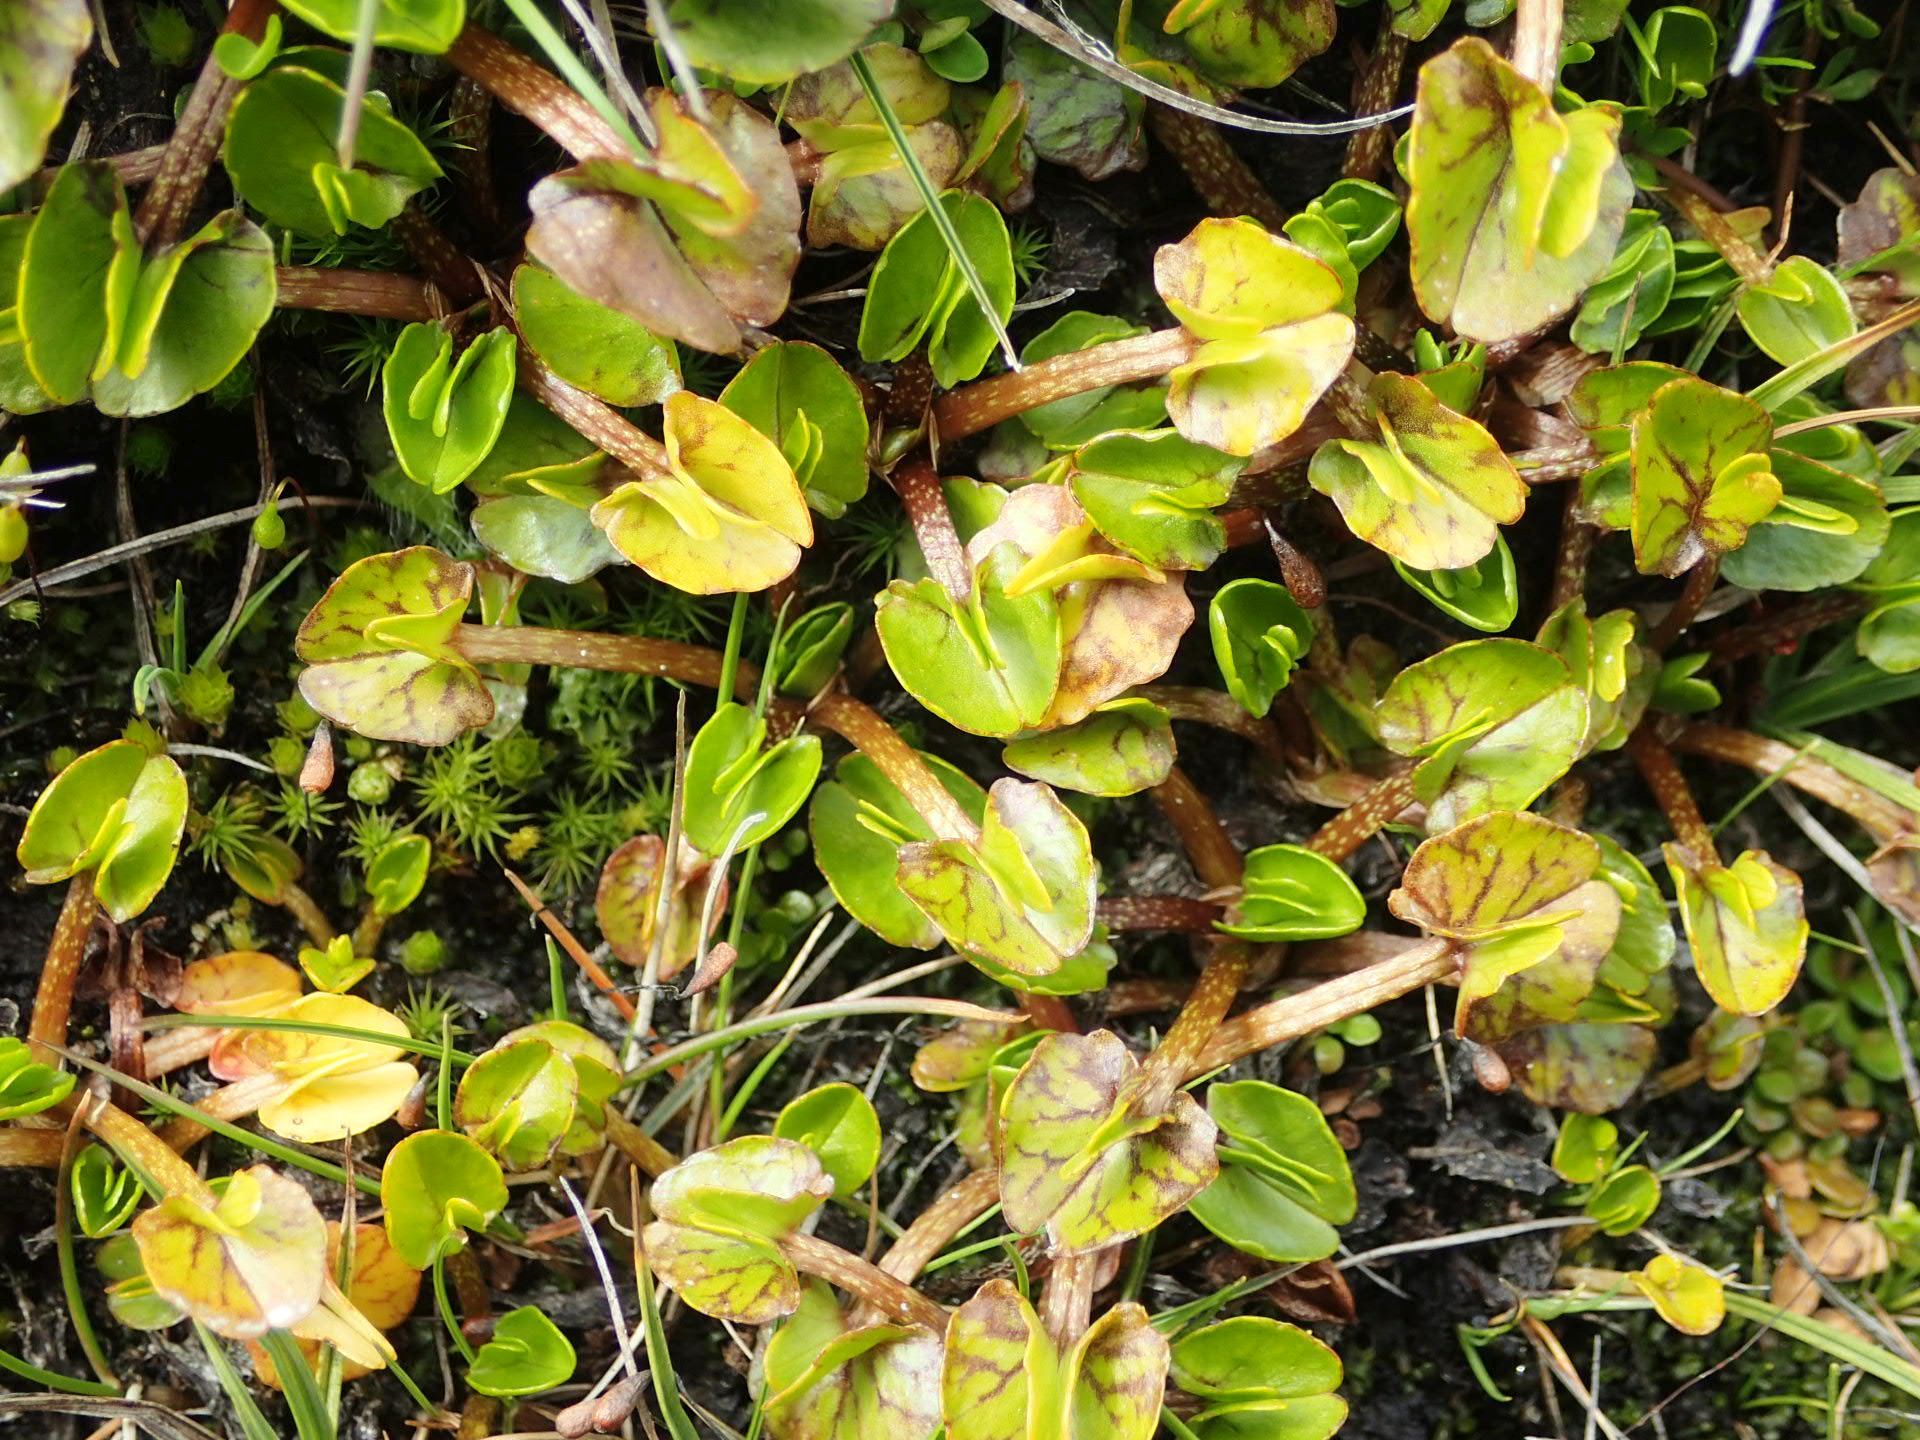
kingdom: Plantae
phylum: Tracheophyta
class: Magnoliopsida
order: Ranunculales
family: Ranunculaceae
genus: Caltha
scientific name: Caltha obtusa
